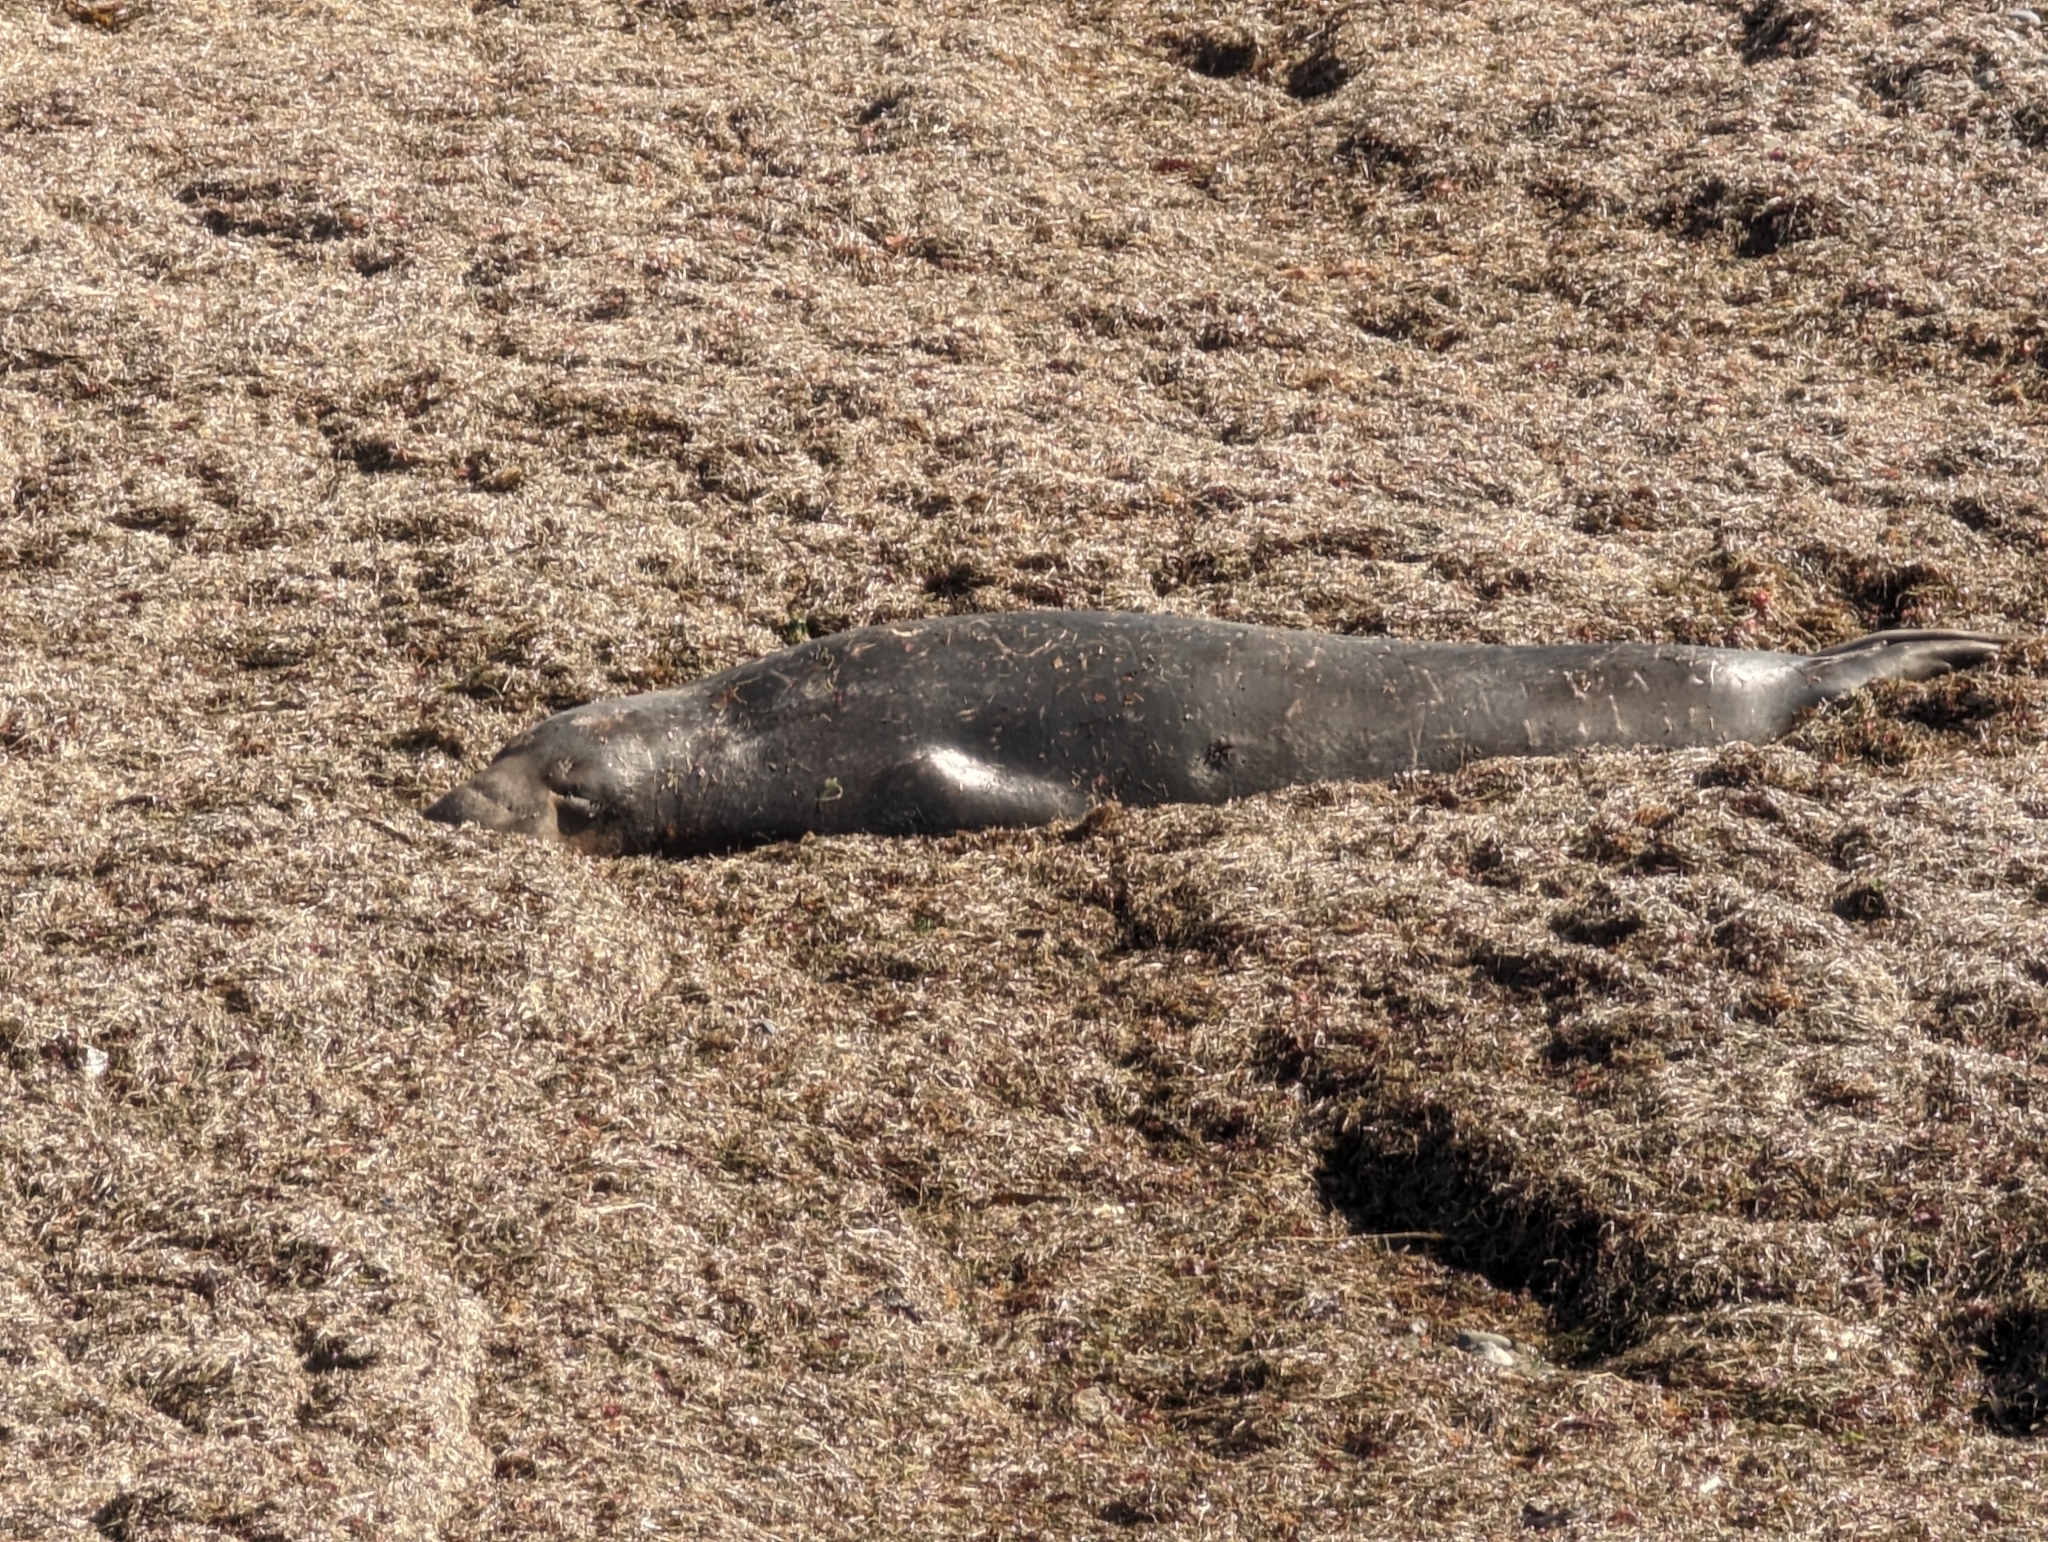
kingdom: Animalia
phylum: Chordata
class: Mammalia
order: Carnivora
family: Phocidae
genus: Mirounga
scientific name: Mirounga angustirostris
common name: Northern elephant seal
